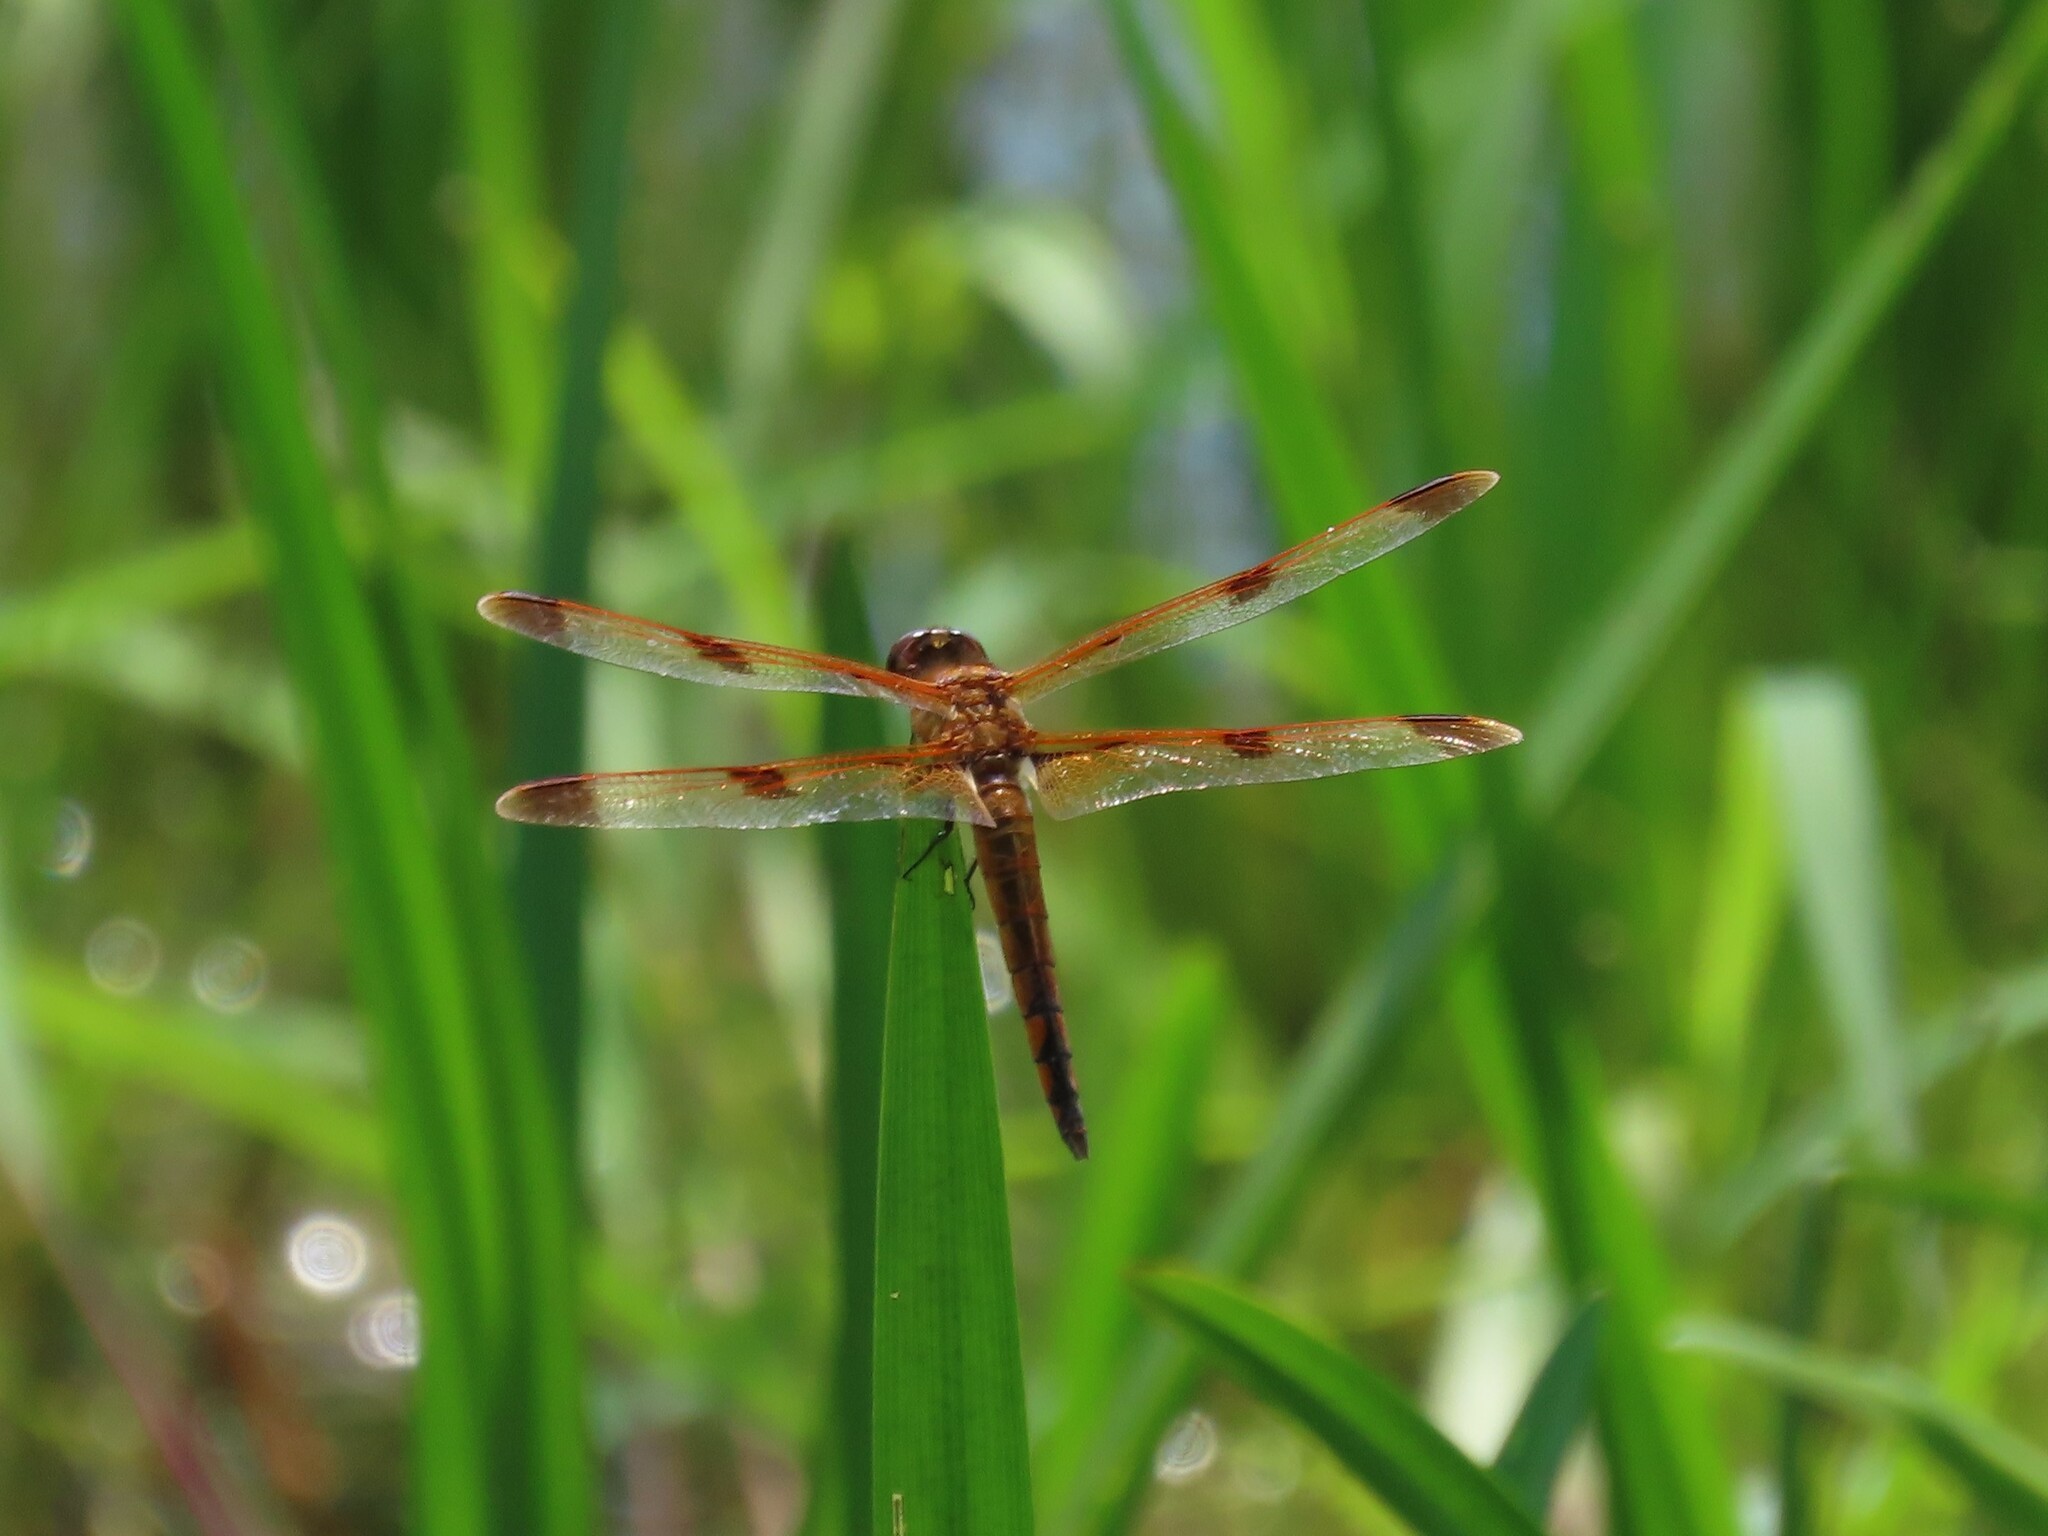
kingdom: Animalia
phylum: Arthropoda
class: Insecta
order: Odonata
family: Libellulidae
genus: Libellula
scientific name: Libellula semifasciata
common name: Painted skimmer
